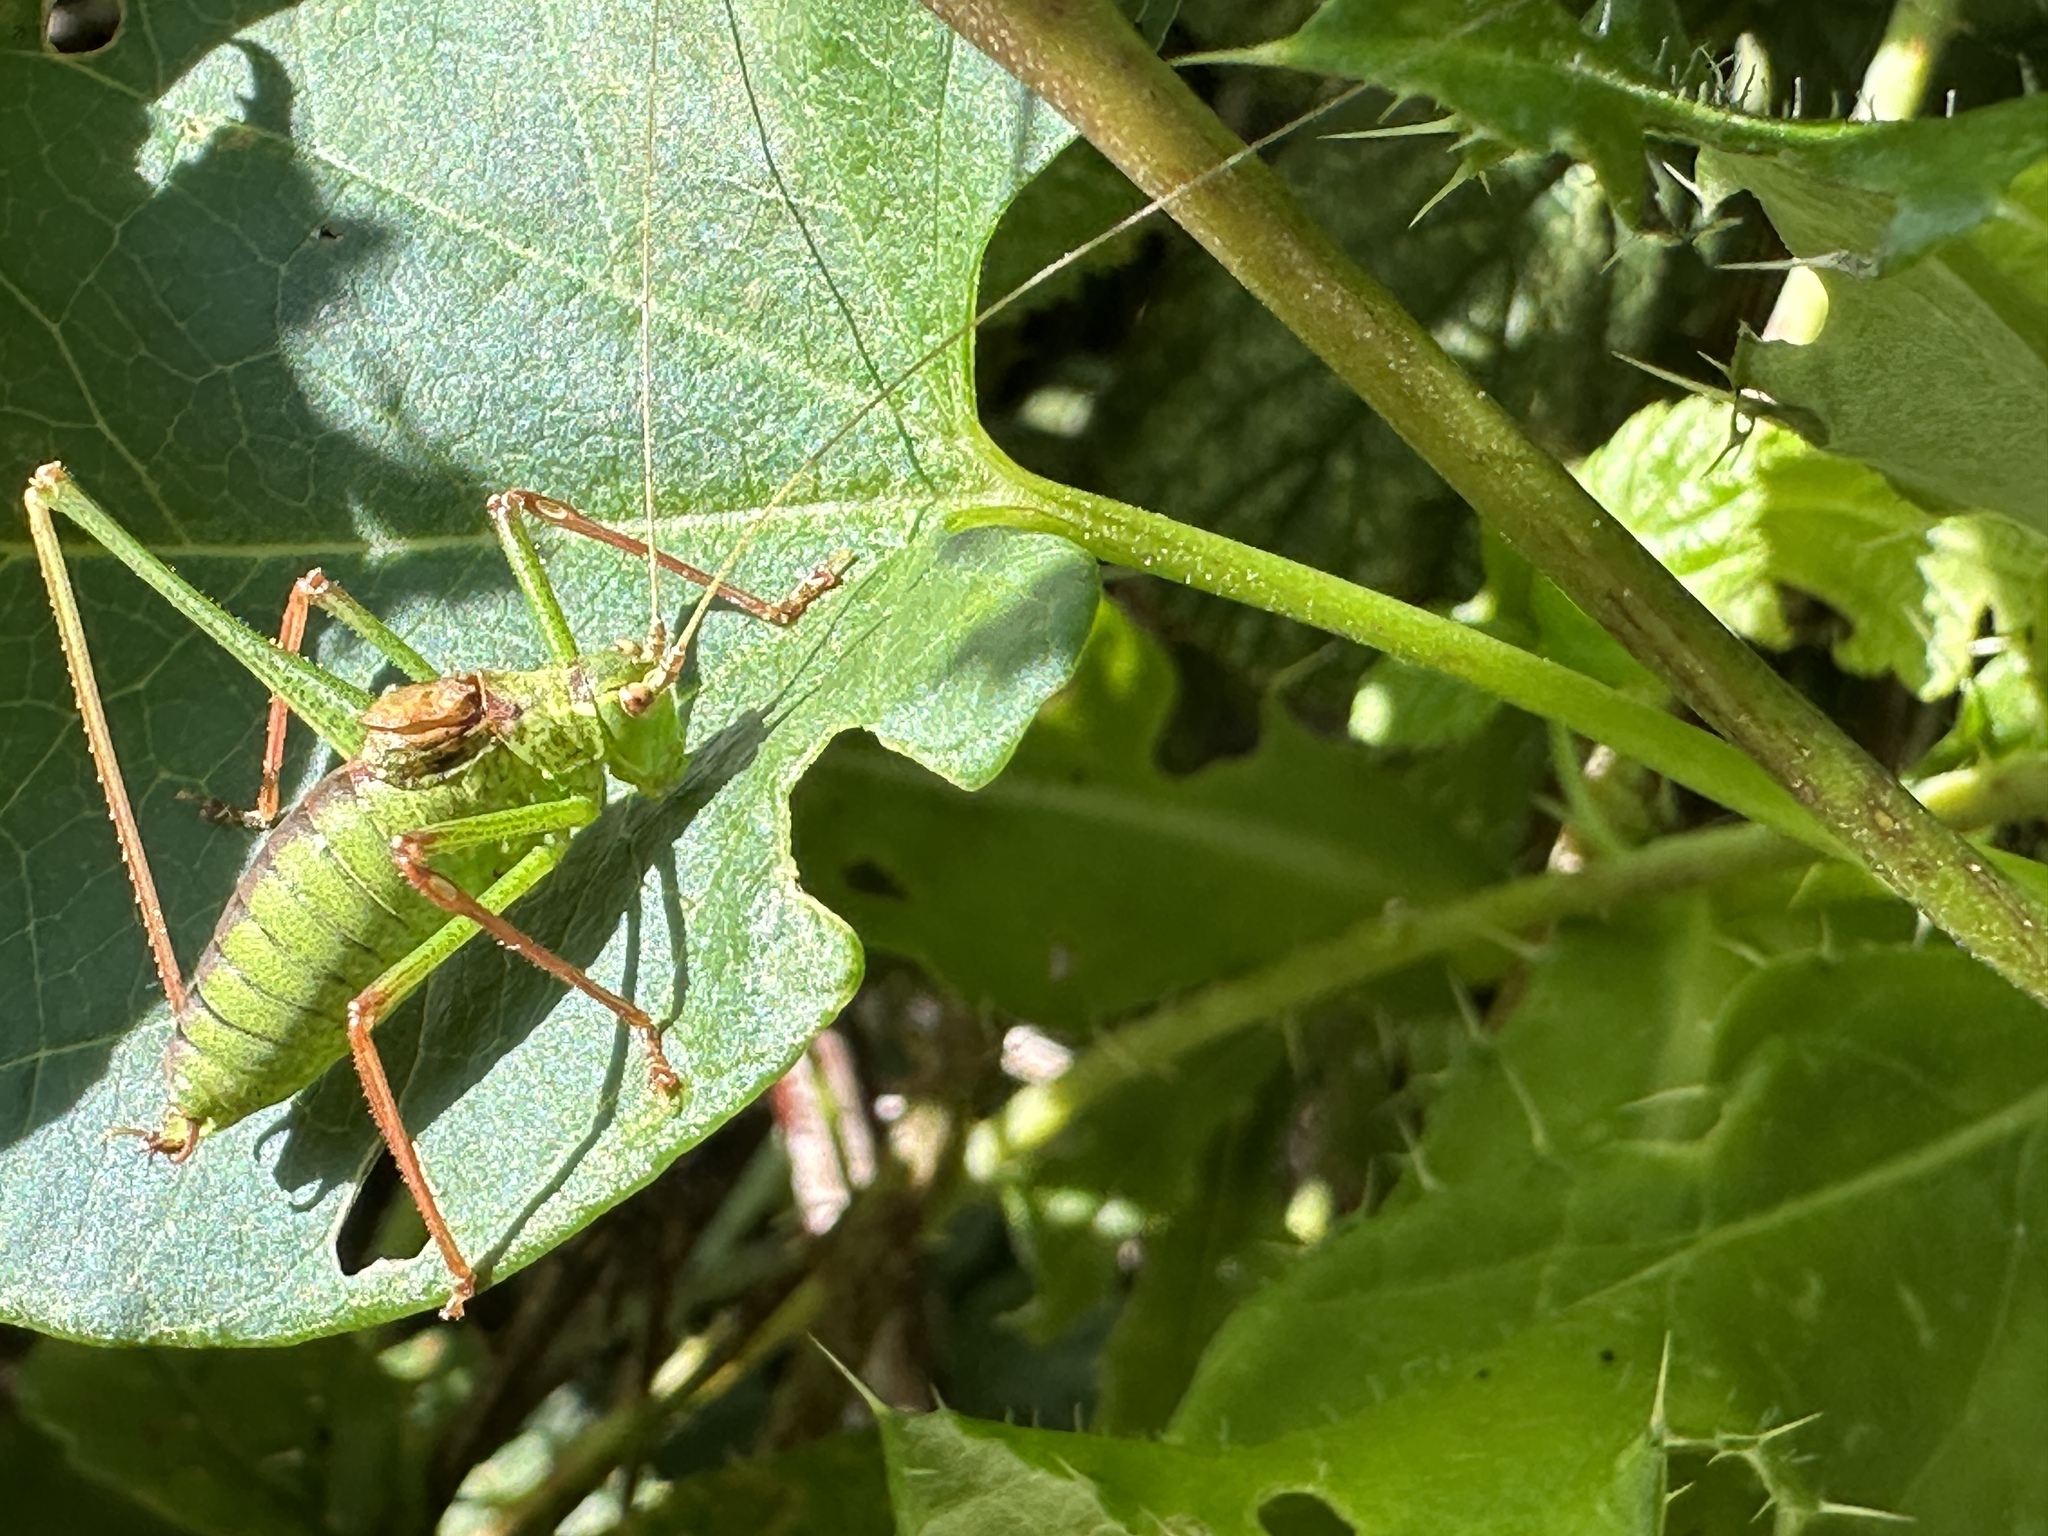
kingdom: Animalia
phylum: Arthropoda
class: Insecta
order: Orthoptera
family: Tettigoniidae
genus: Leptophyes
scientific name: Leptophyes punctatissima
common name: Speckled bush-cricket
